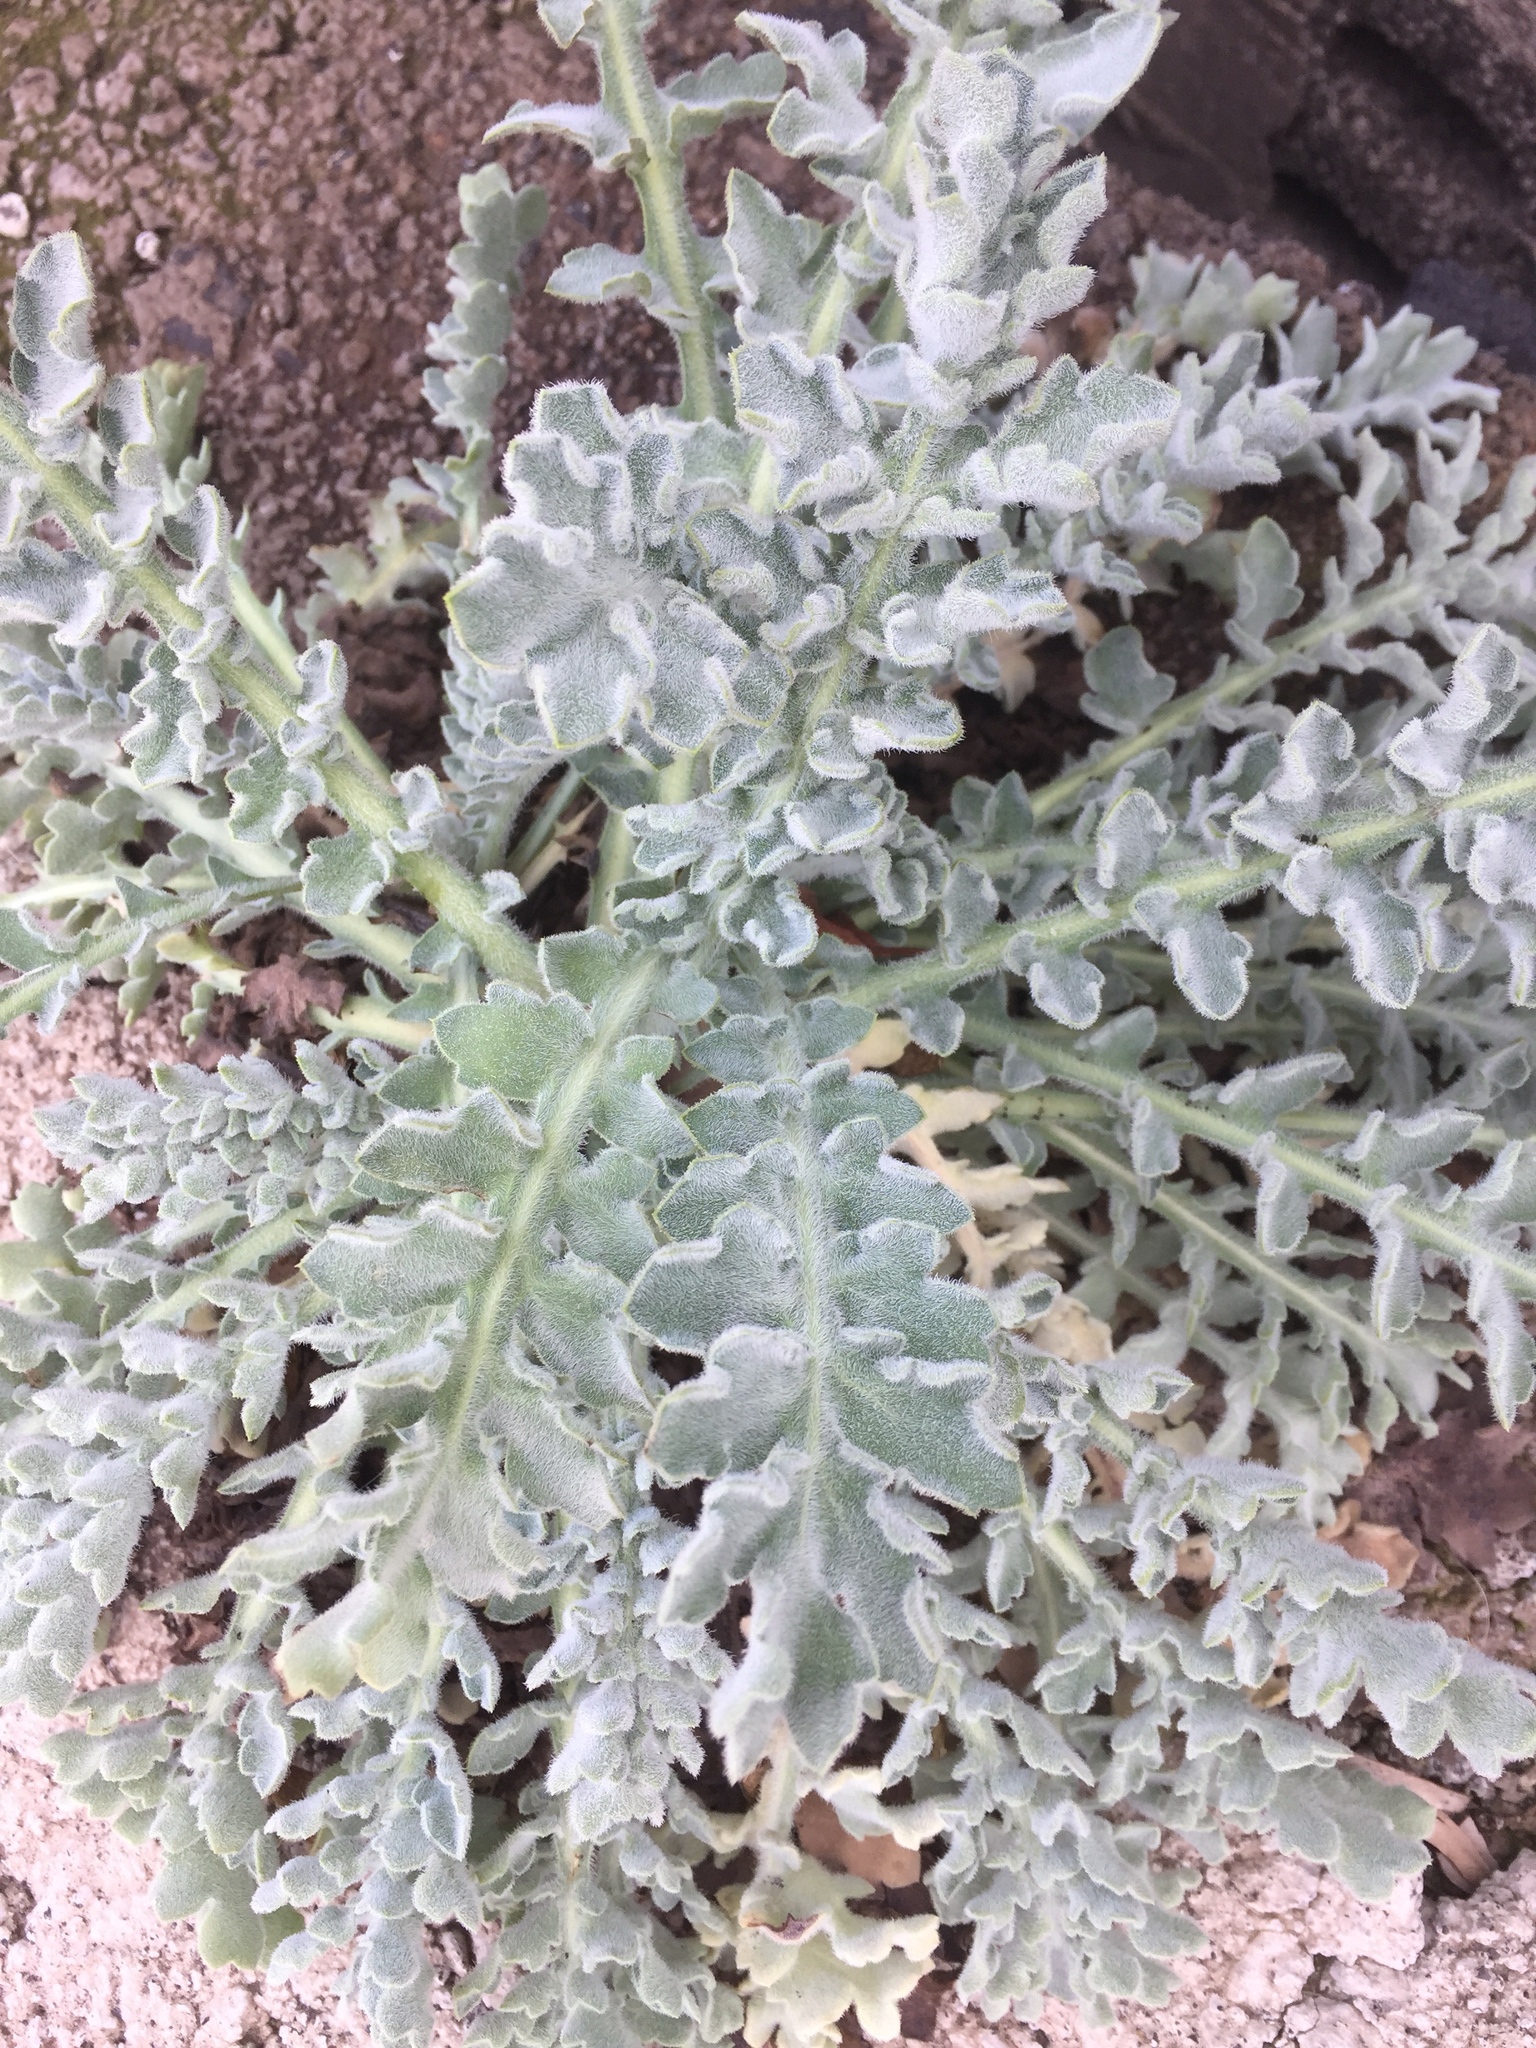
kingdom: Plantae
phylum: Tracheophyta
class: Magnoliopsida
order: Ranunculales
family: Papaveraceae
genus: Glaucium
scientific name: Glaucium flavum
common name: Yellow horned-poppy
